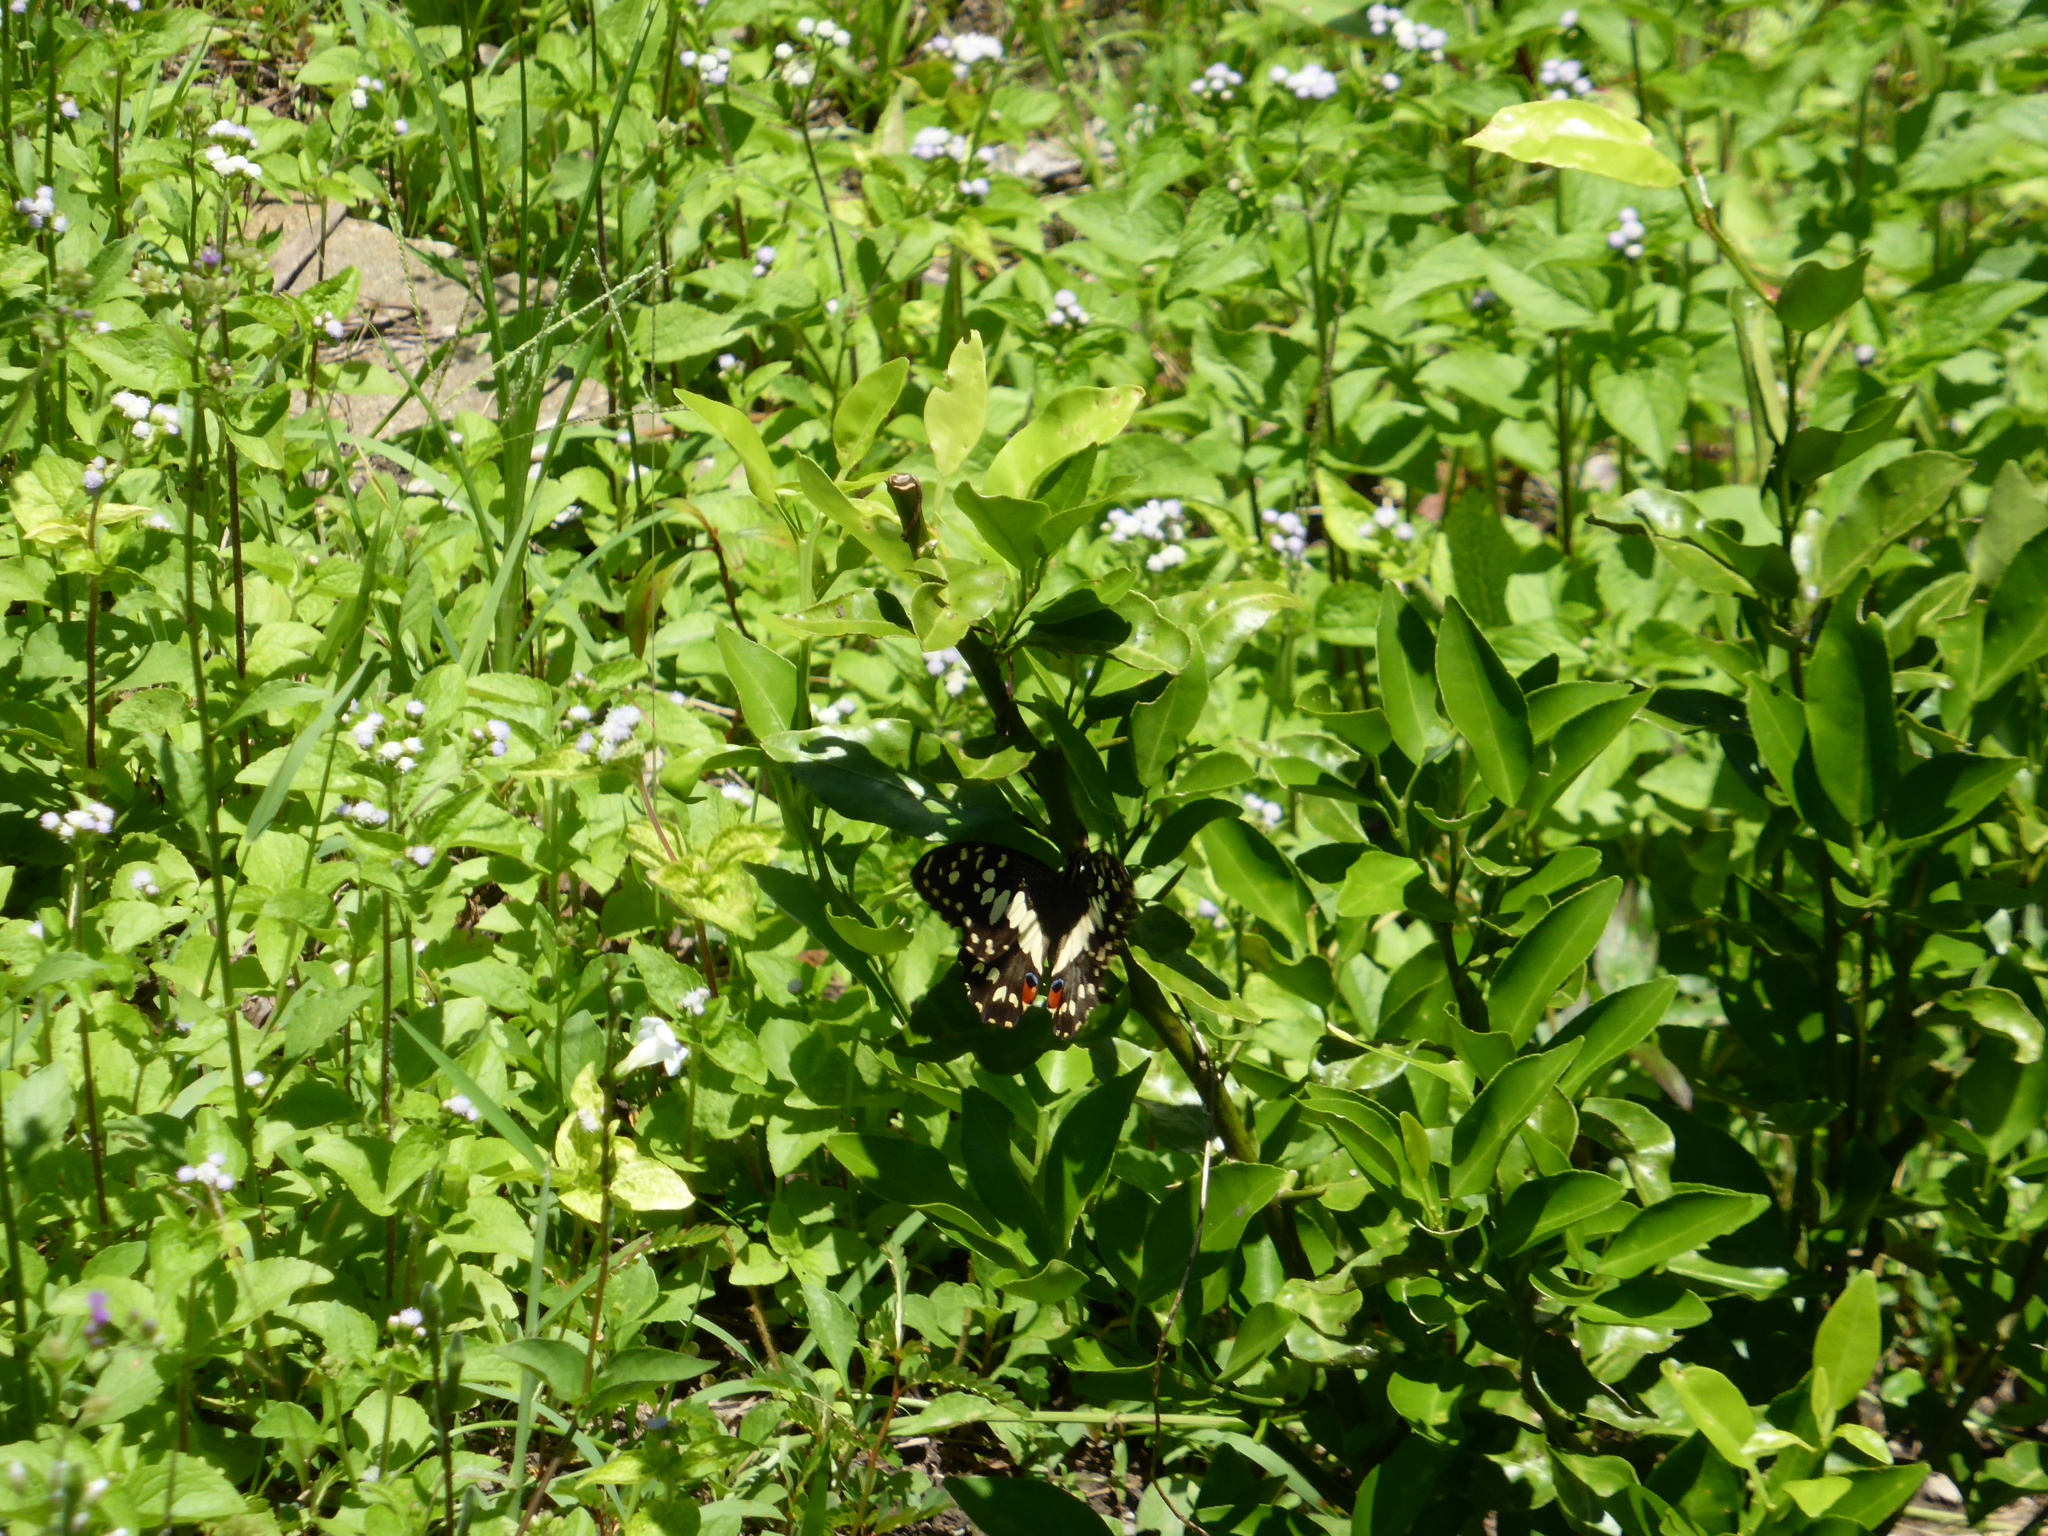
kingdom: Animalia
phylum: Arthropoda
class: Insecta
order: Lepidoptera
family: Papilionidae
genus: Papilio
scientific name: Papilio demoleus
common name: Lime butterfly
